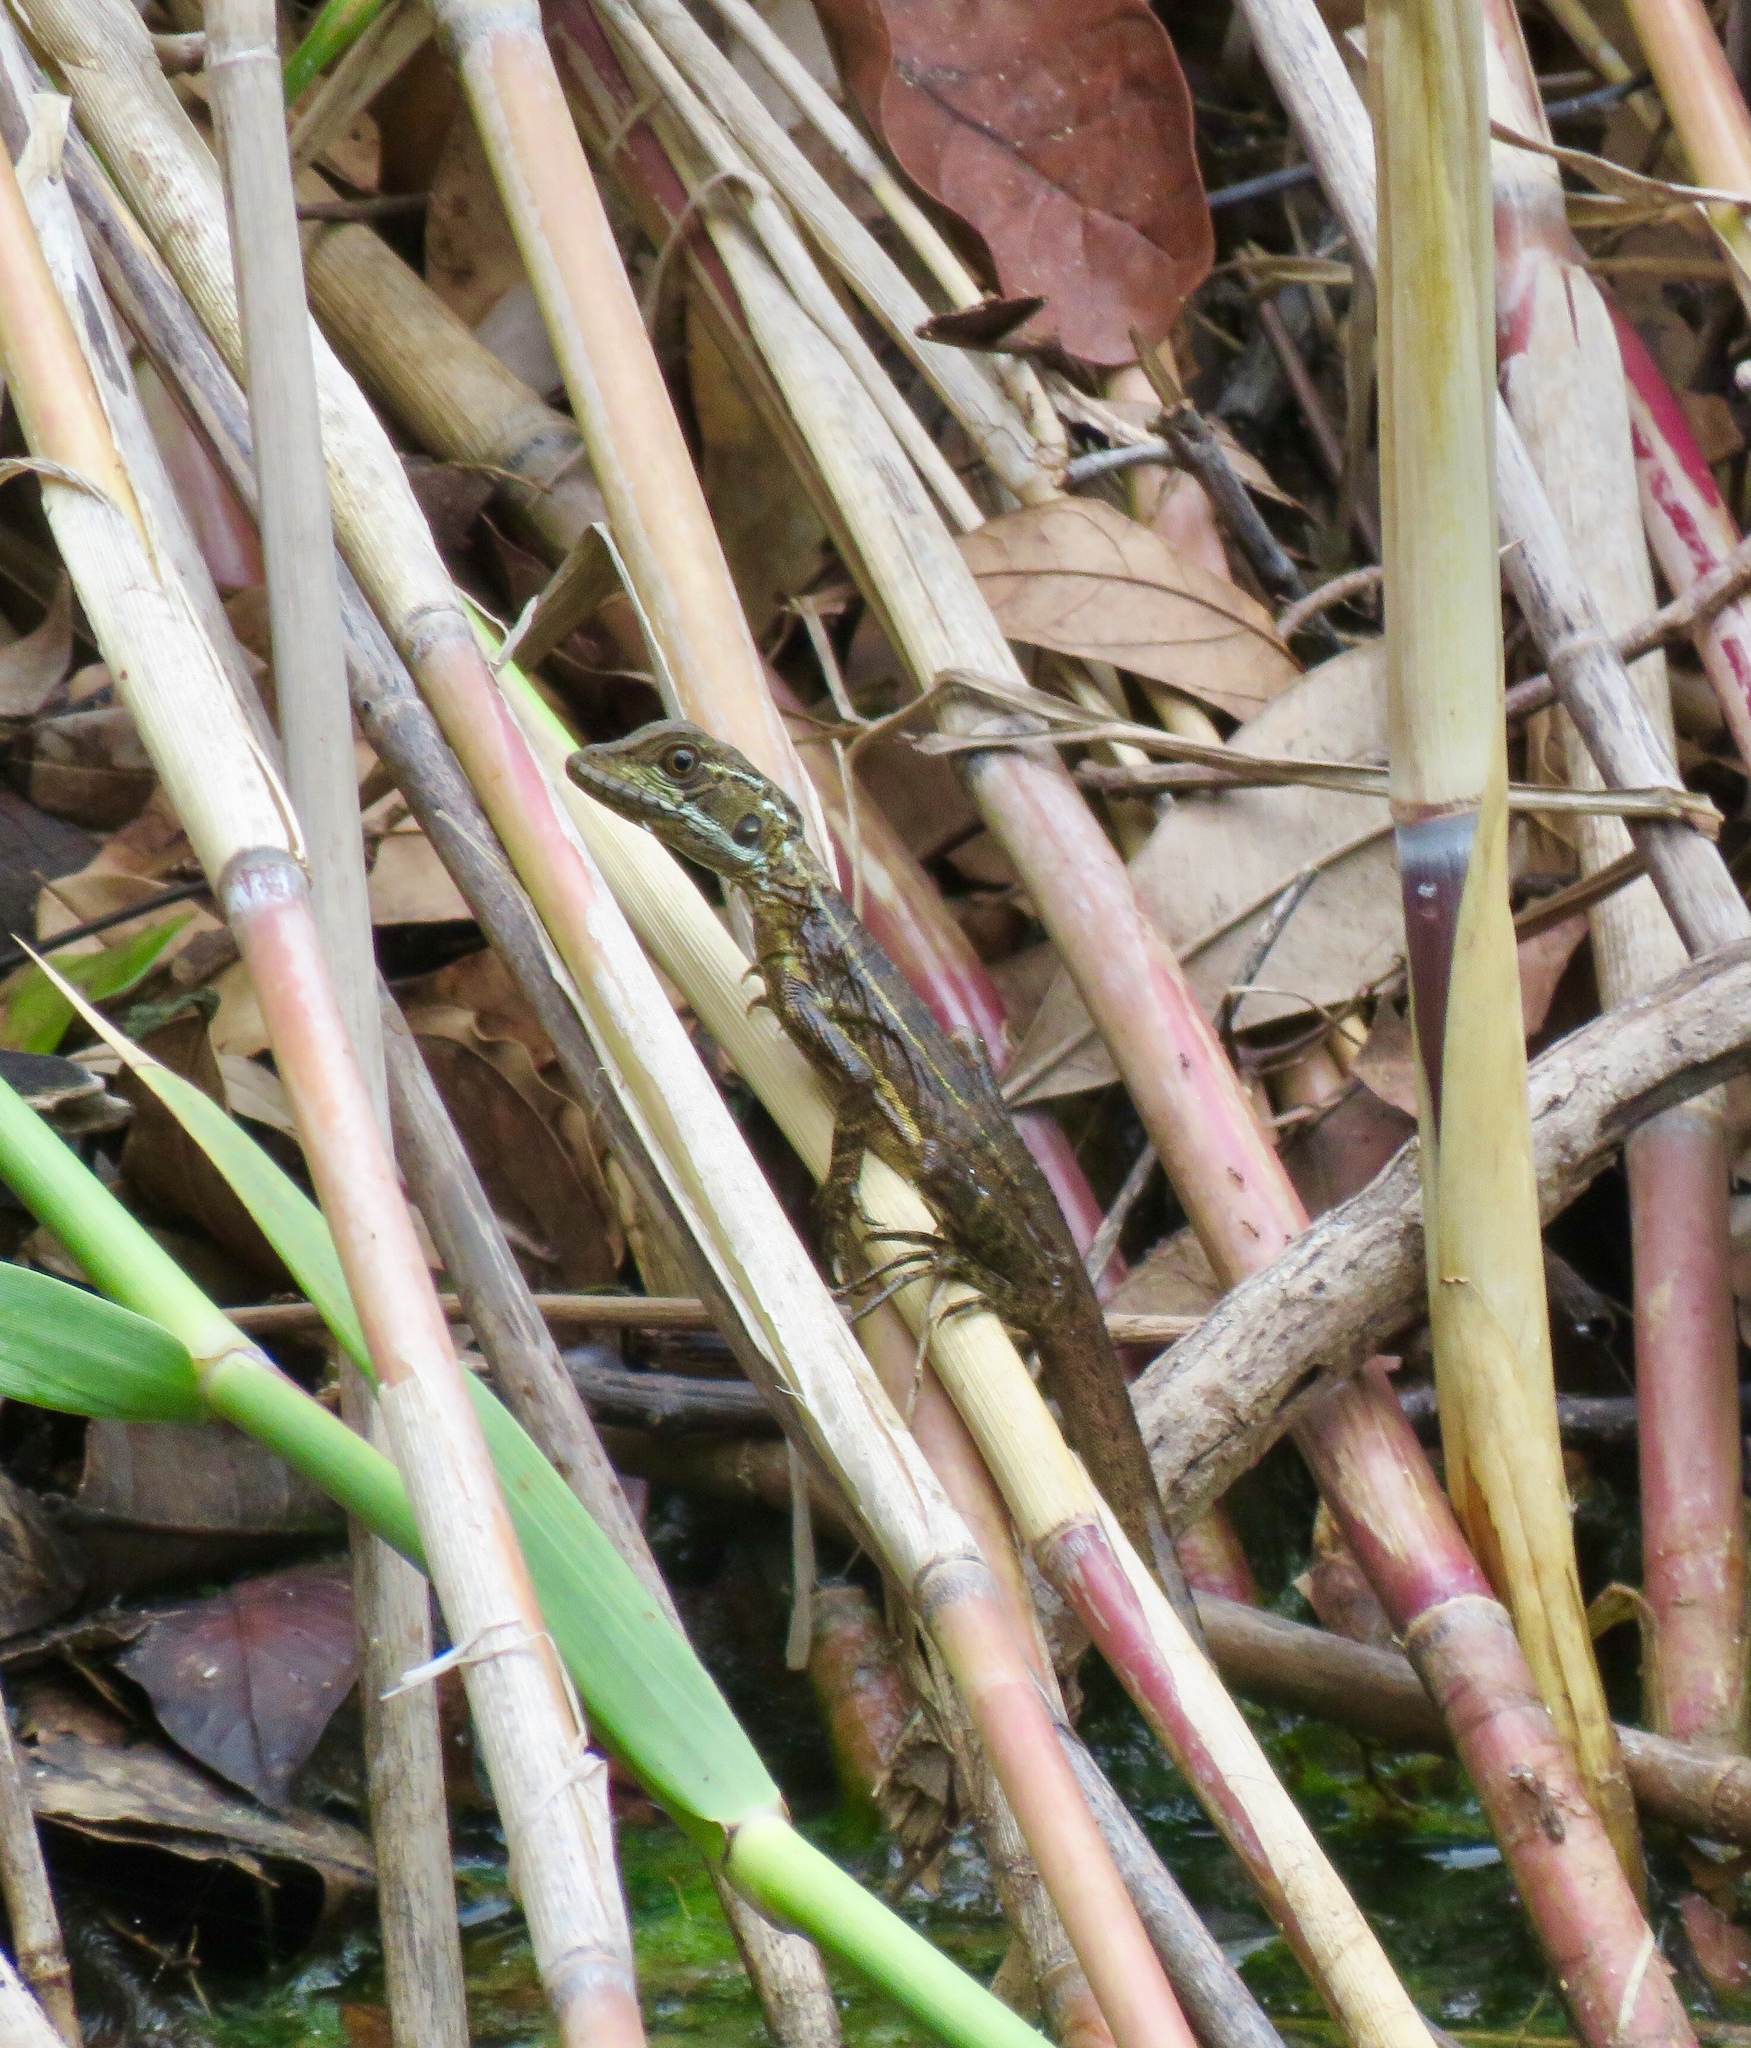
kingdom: Animalia
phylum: Chordata
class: Squamata
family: Corytophanidae
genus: Basiliscus
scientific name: Basiliscus basiliscus
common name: Common basilisk
